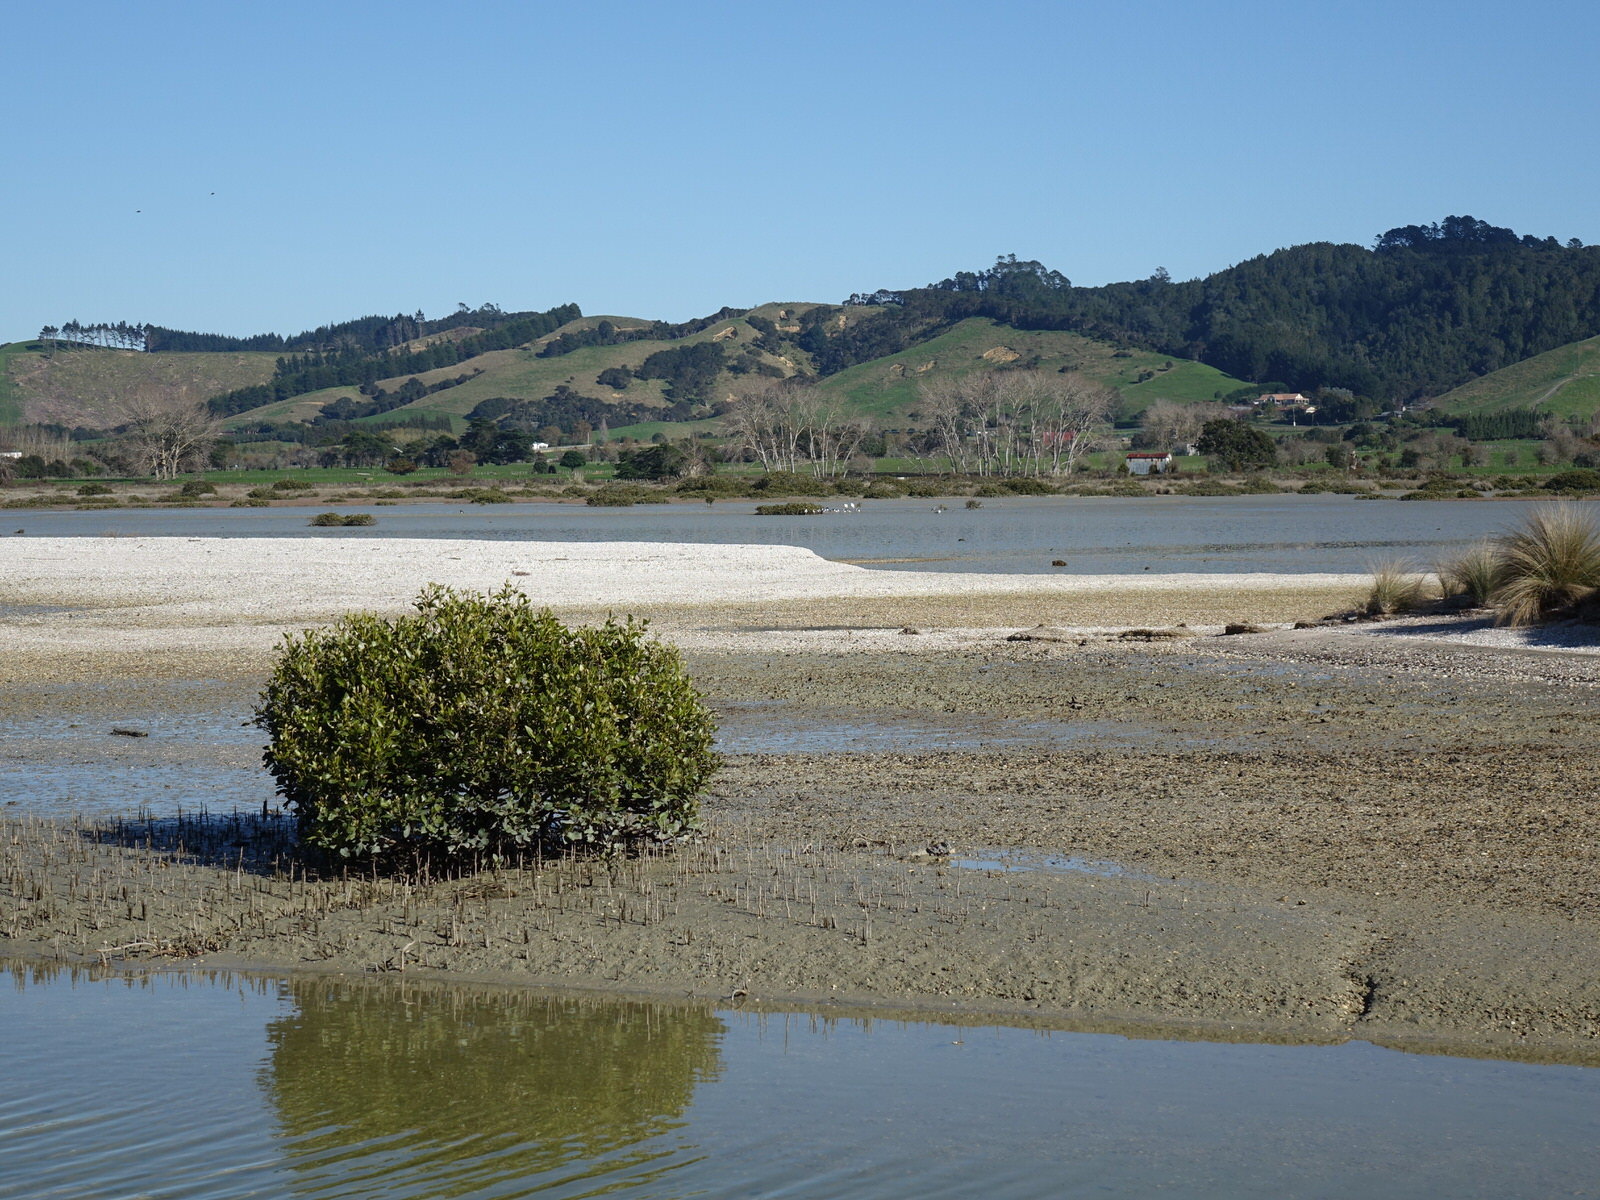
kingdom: Animalia
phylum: Chordata
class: Aves
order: Pelecaniformes
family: Threskiornithidae
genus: Platalea
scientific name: Platalea regia
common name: Royal spoonbill
